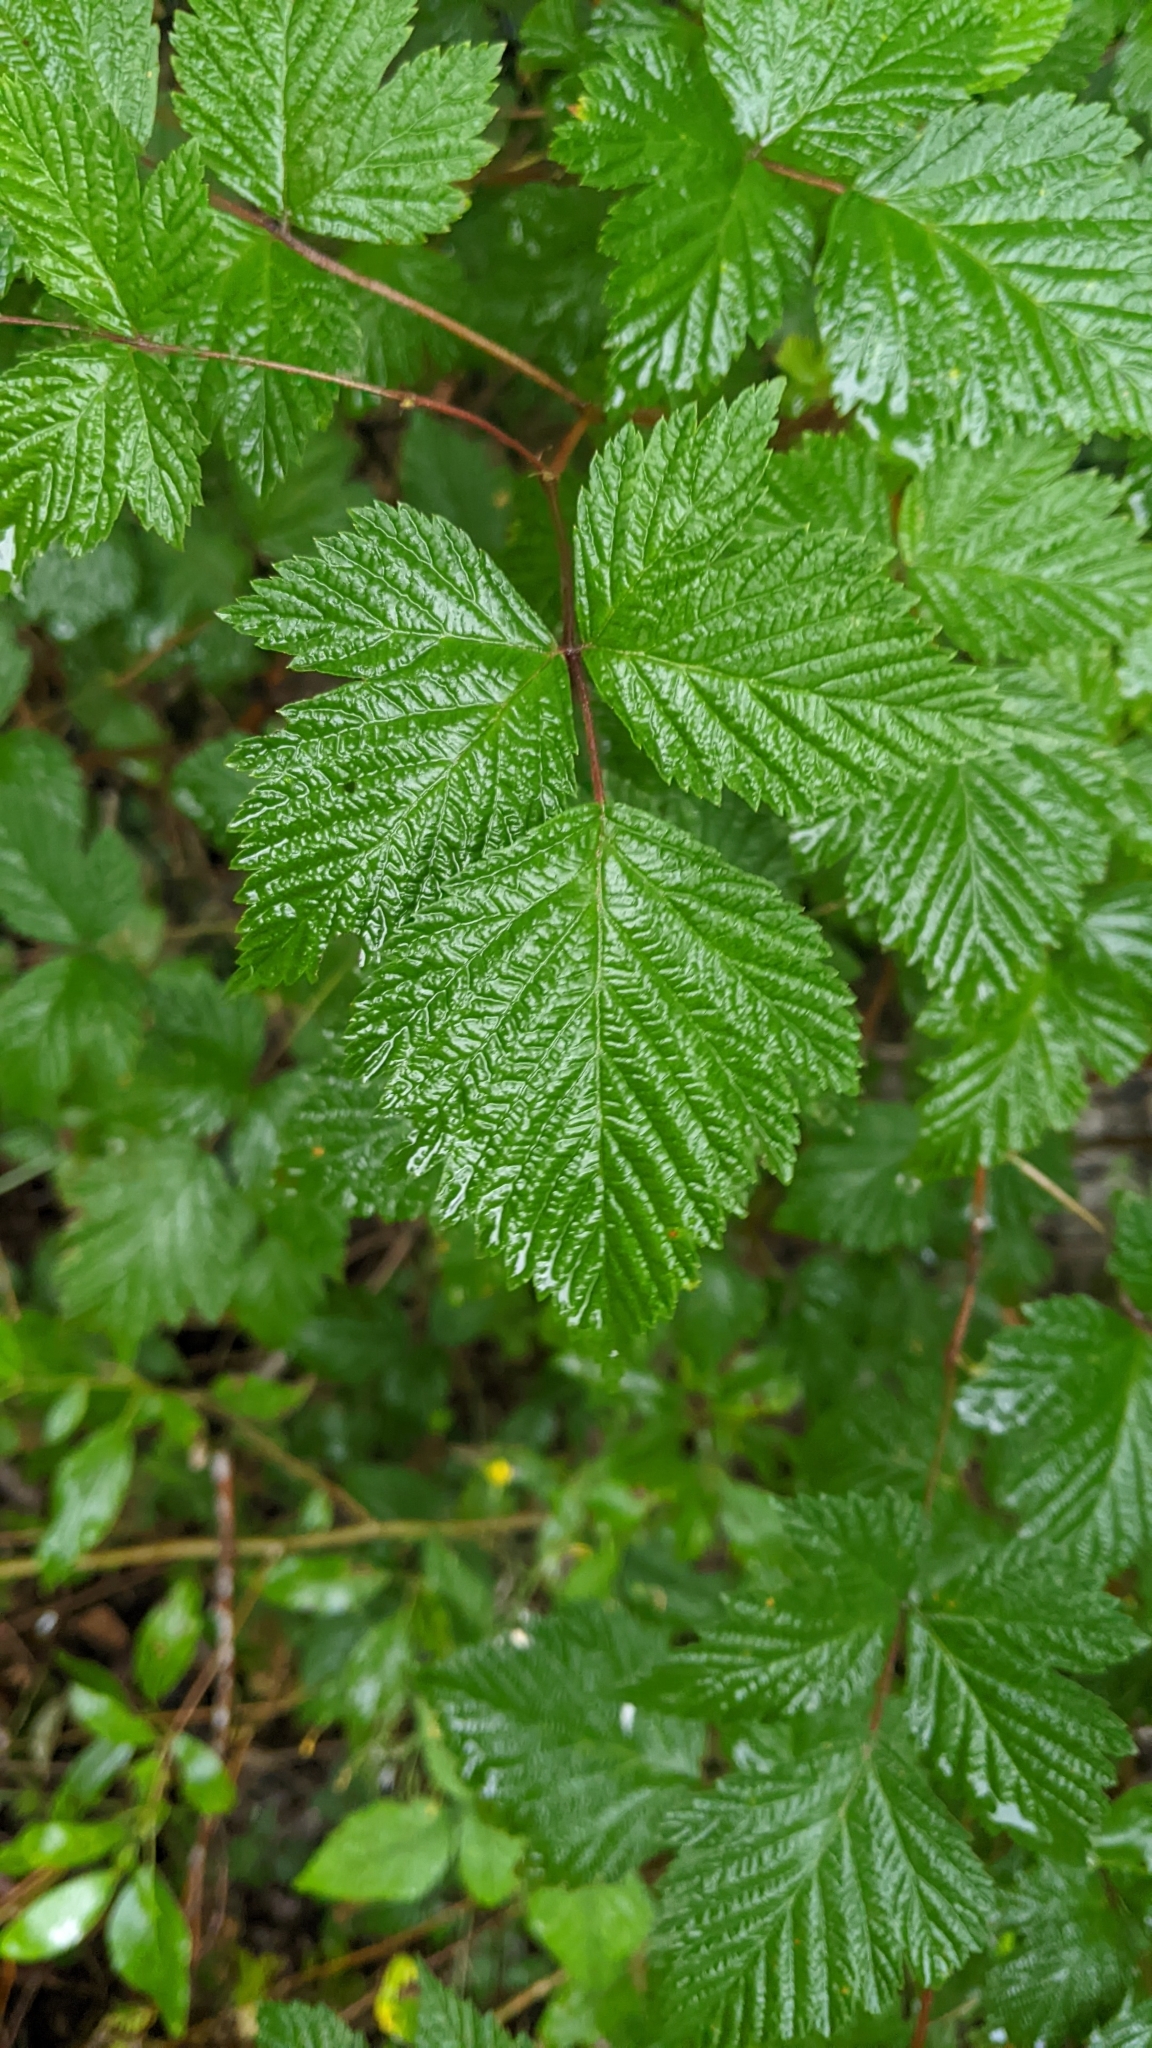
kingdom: Plantae
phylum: Tracheophyta
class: Magnoliopsida
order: Rosales
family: Rosaceae
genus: Rubus
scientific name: Rubus spectabilis
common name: Salmonberry
